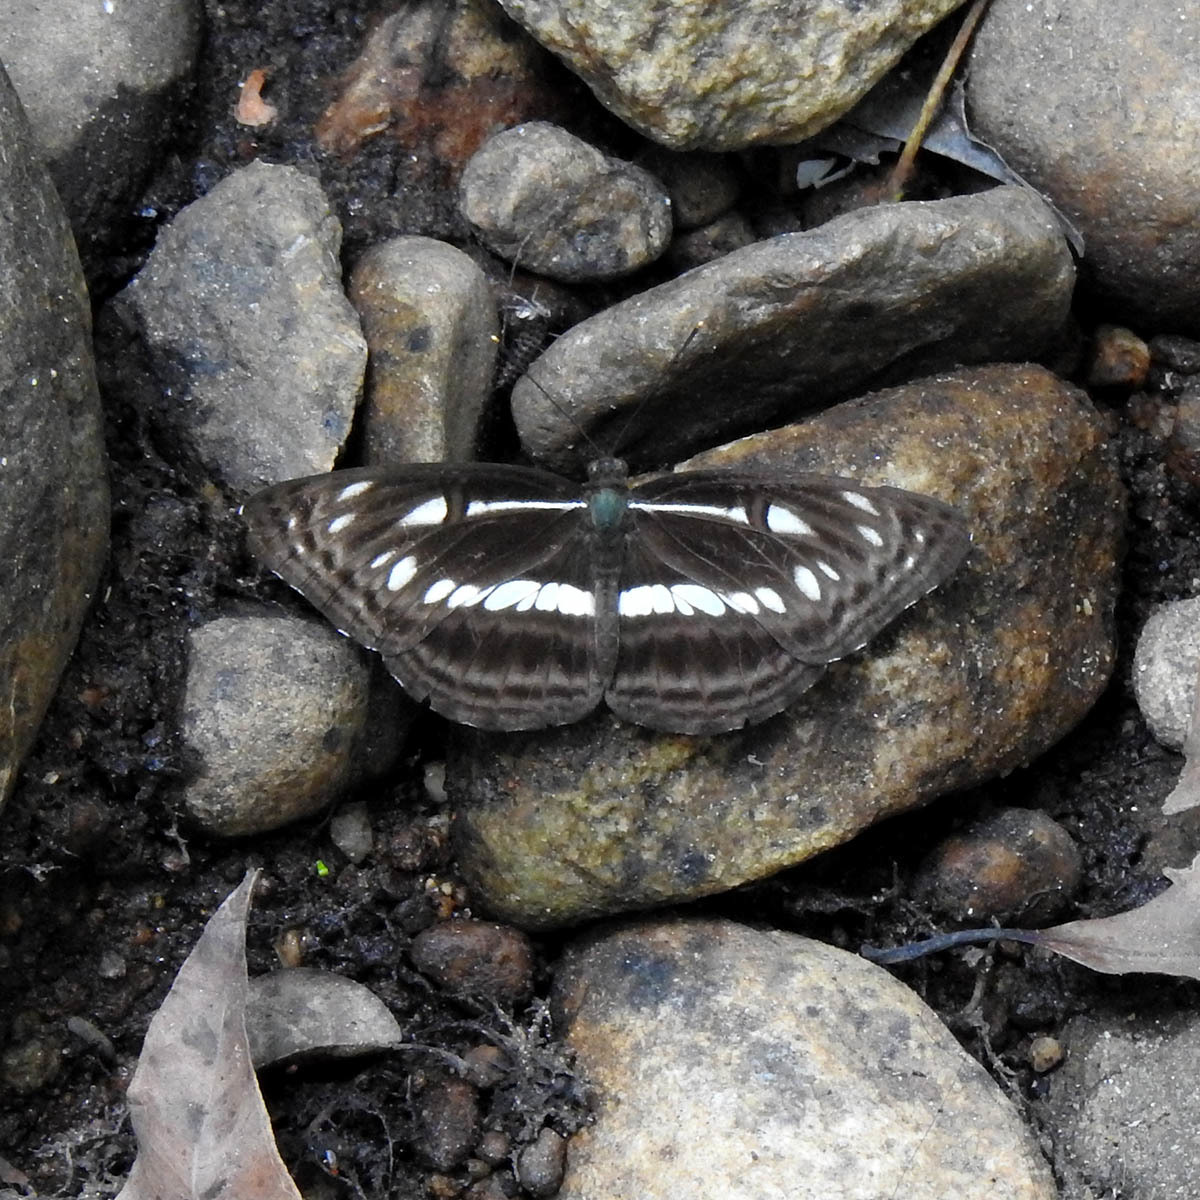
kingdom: Animalia
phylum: Arthropoda
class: Insecta
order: Lepidoptera
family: Nymphalidae
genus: Neptis
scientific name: Neptis jumbah
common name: Chestnut-streaked sailer
